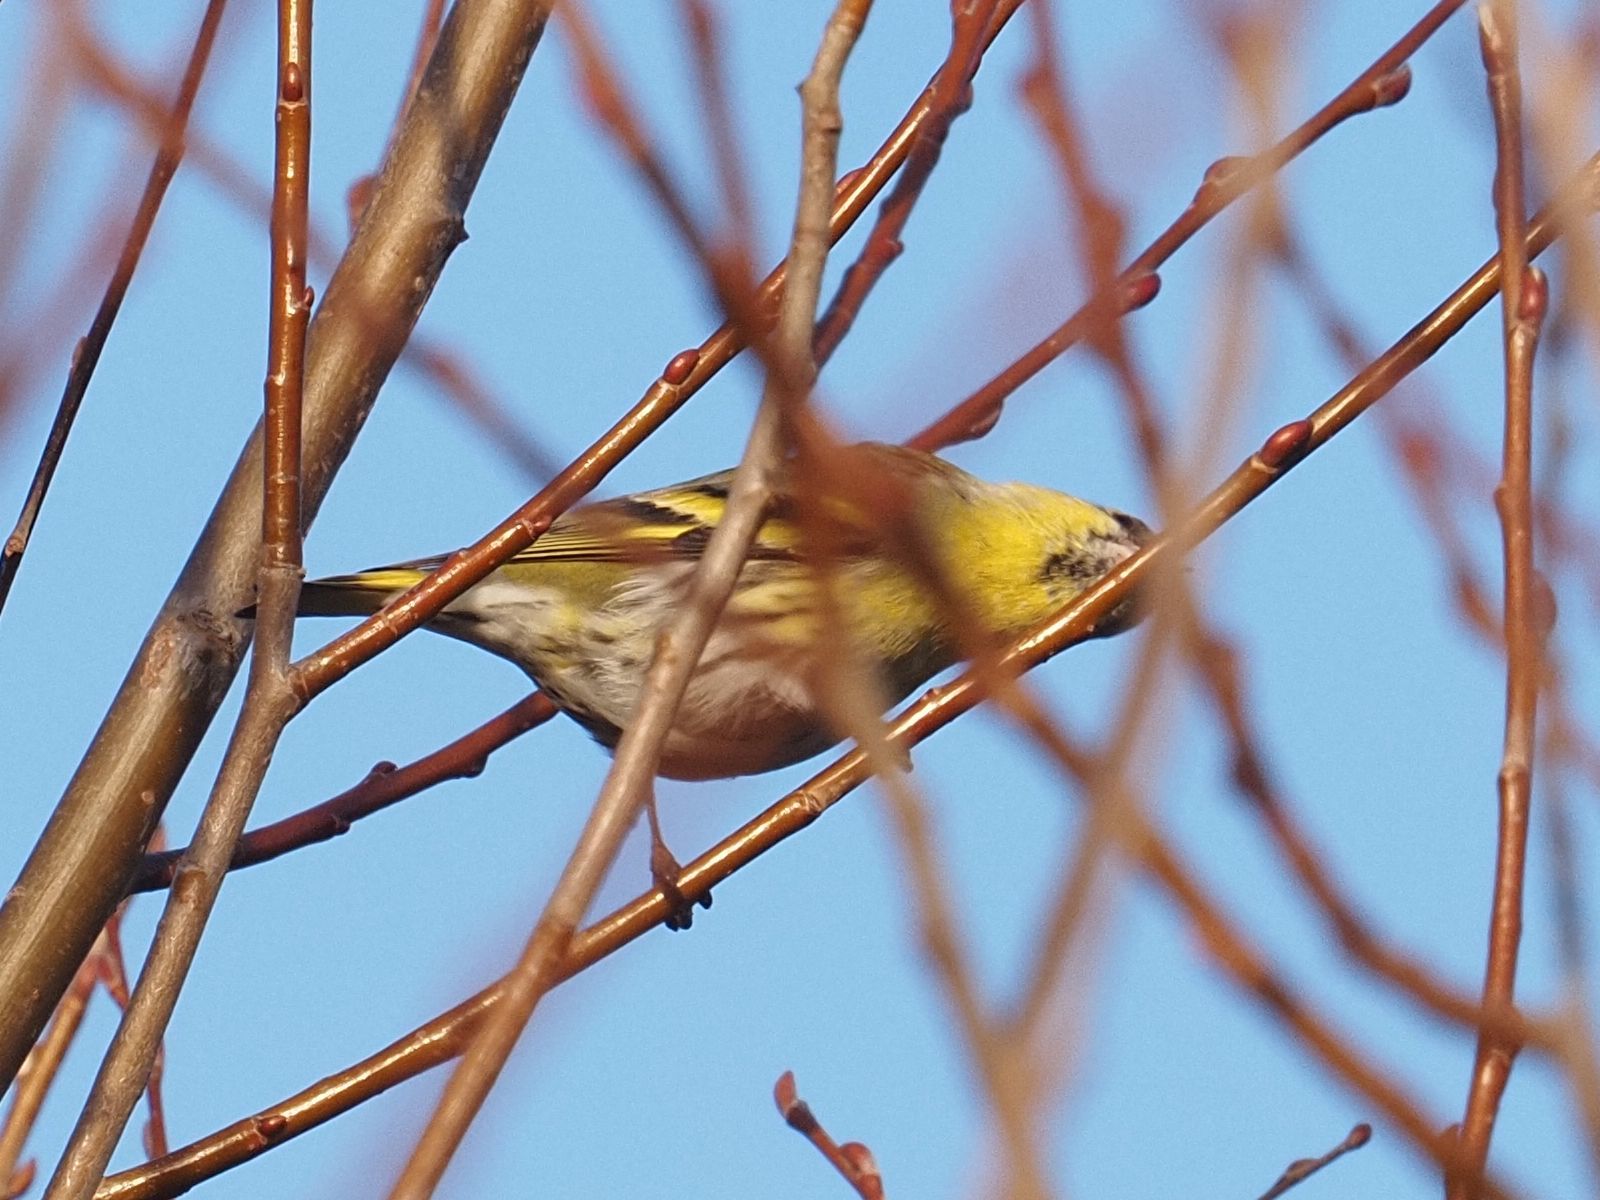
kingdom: Animalia
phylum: Chordata
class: Aves
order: Passeriformes
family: Fringillidae
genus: Spinus
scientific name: Spinus spinus
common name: Eurasian siskin
